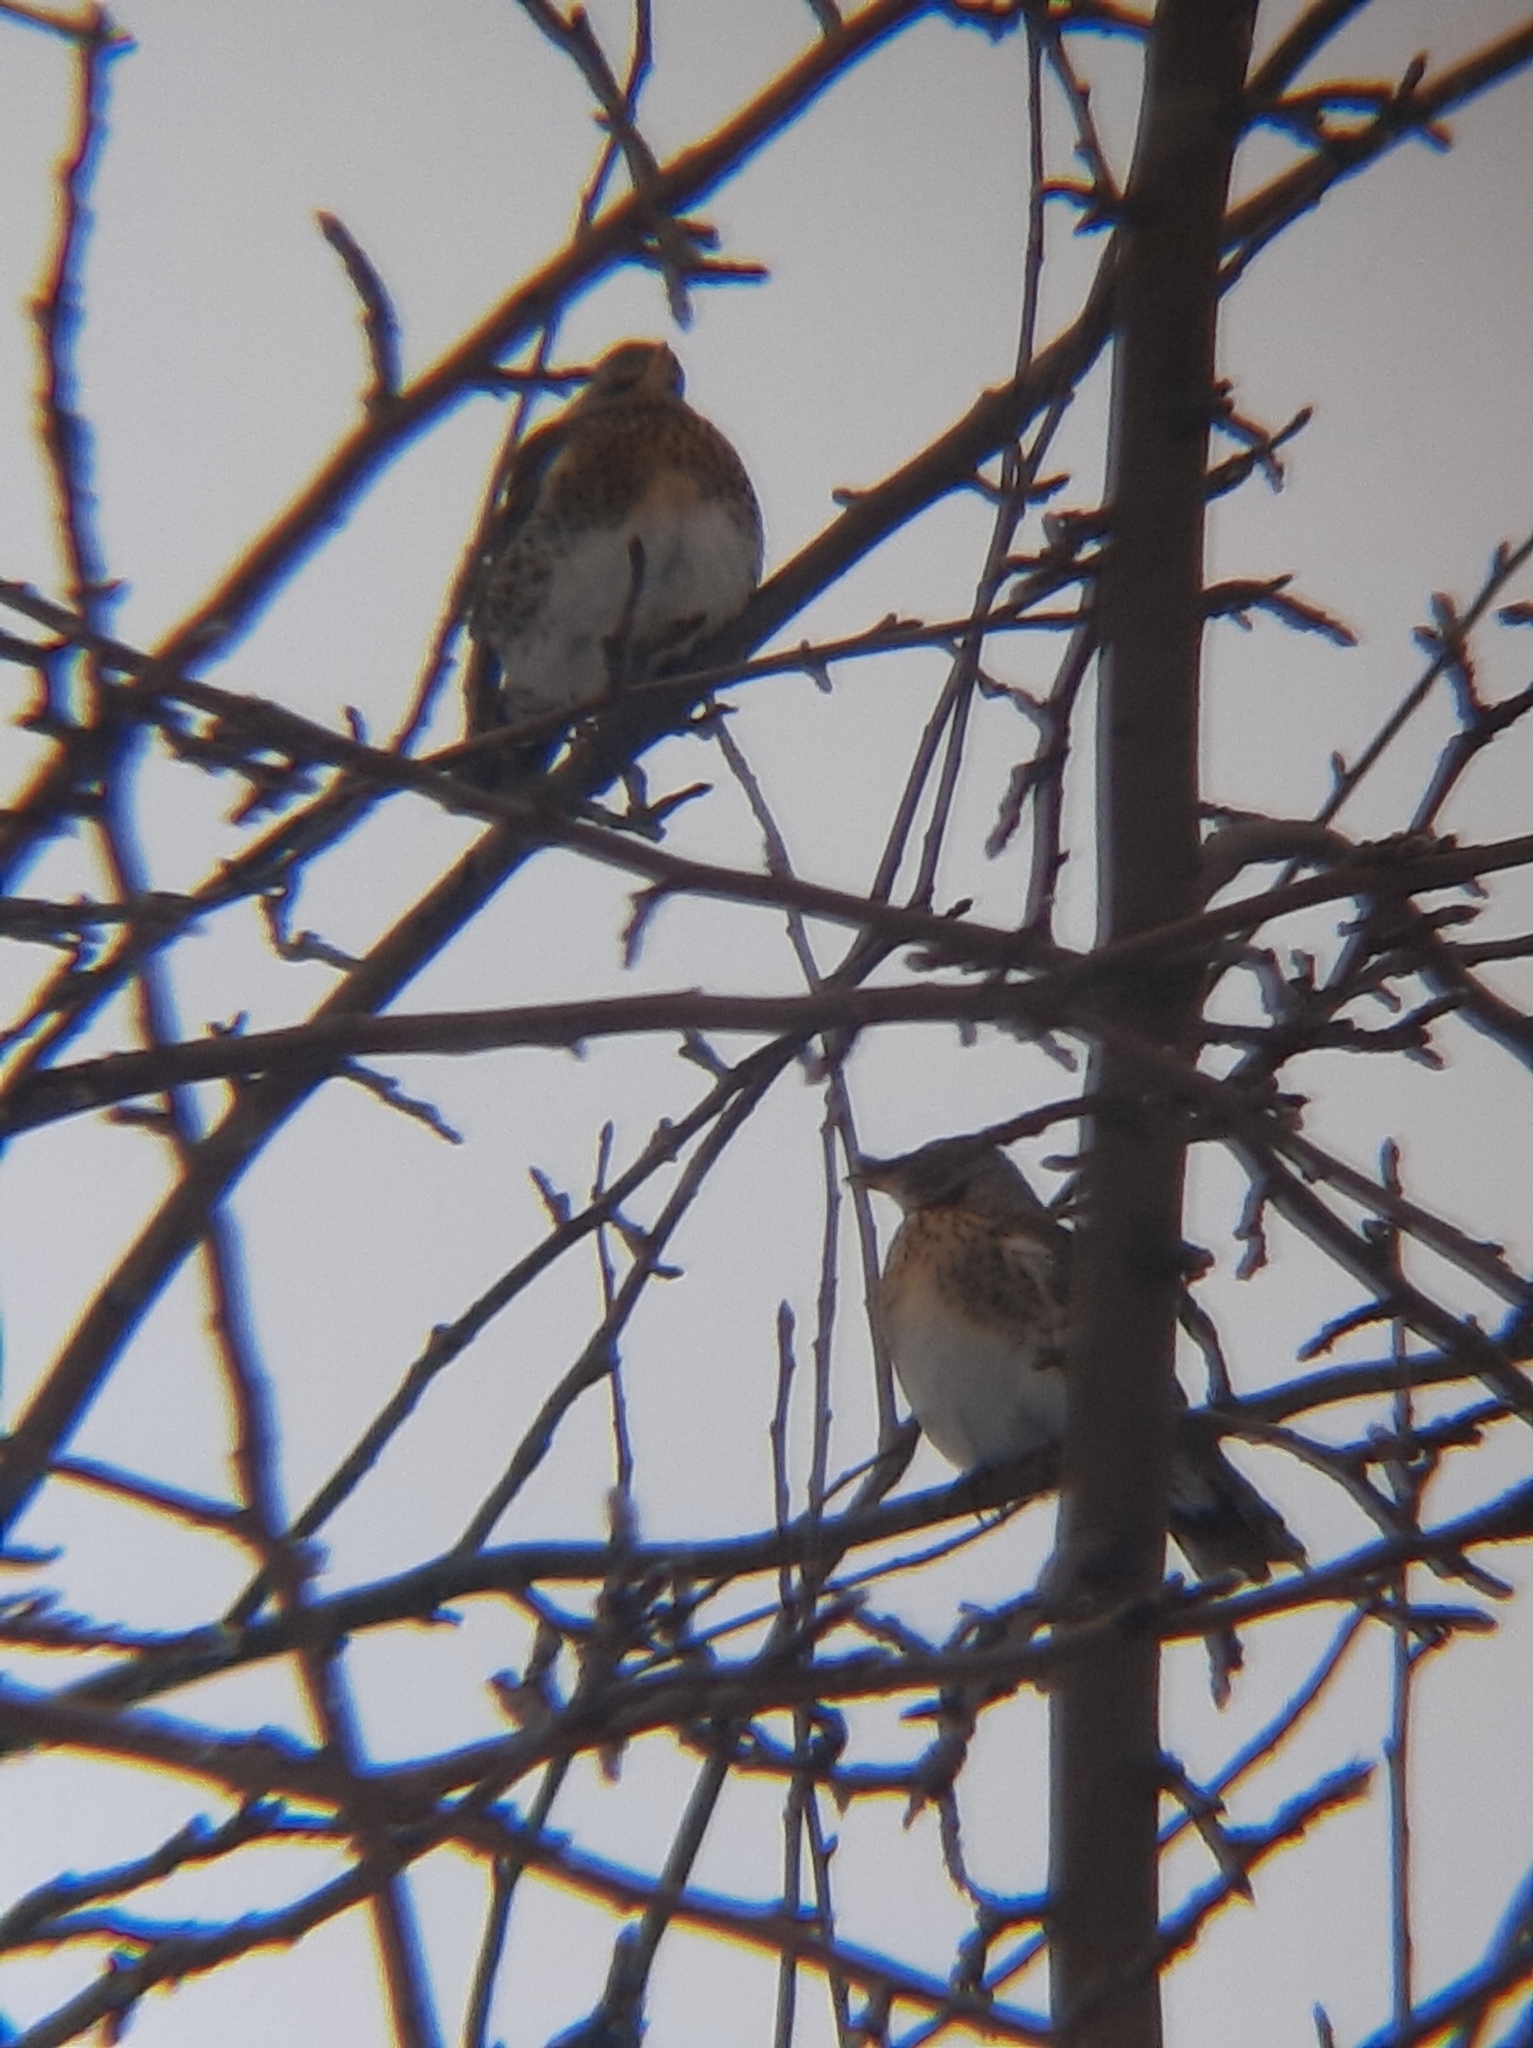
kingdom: Animalia
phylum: Chordata
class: Aves
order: Passeriformes
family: Turdidae
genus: Turdus
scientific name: Turdus pilaris
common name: Fieldfare
